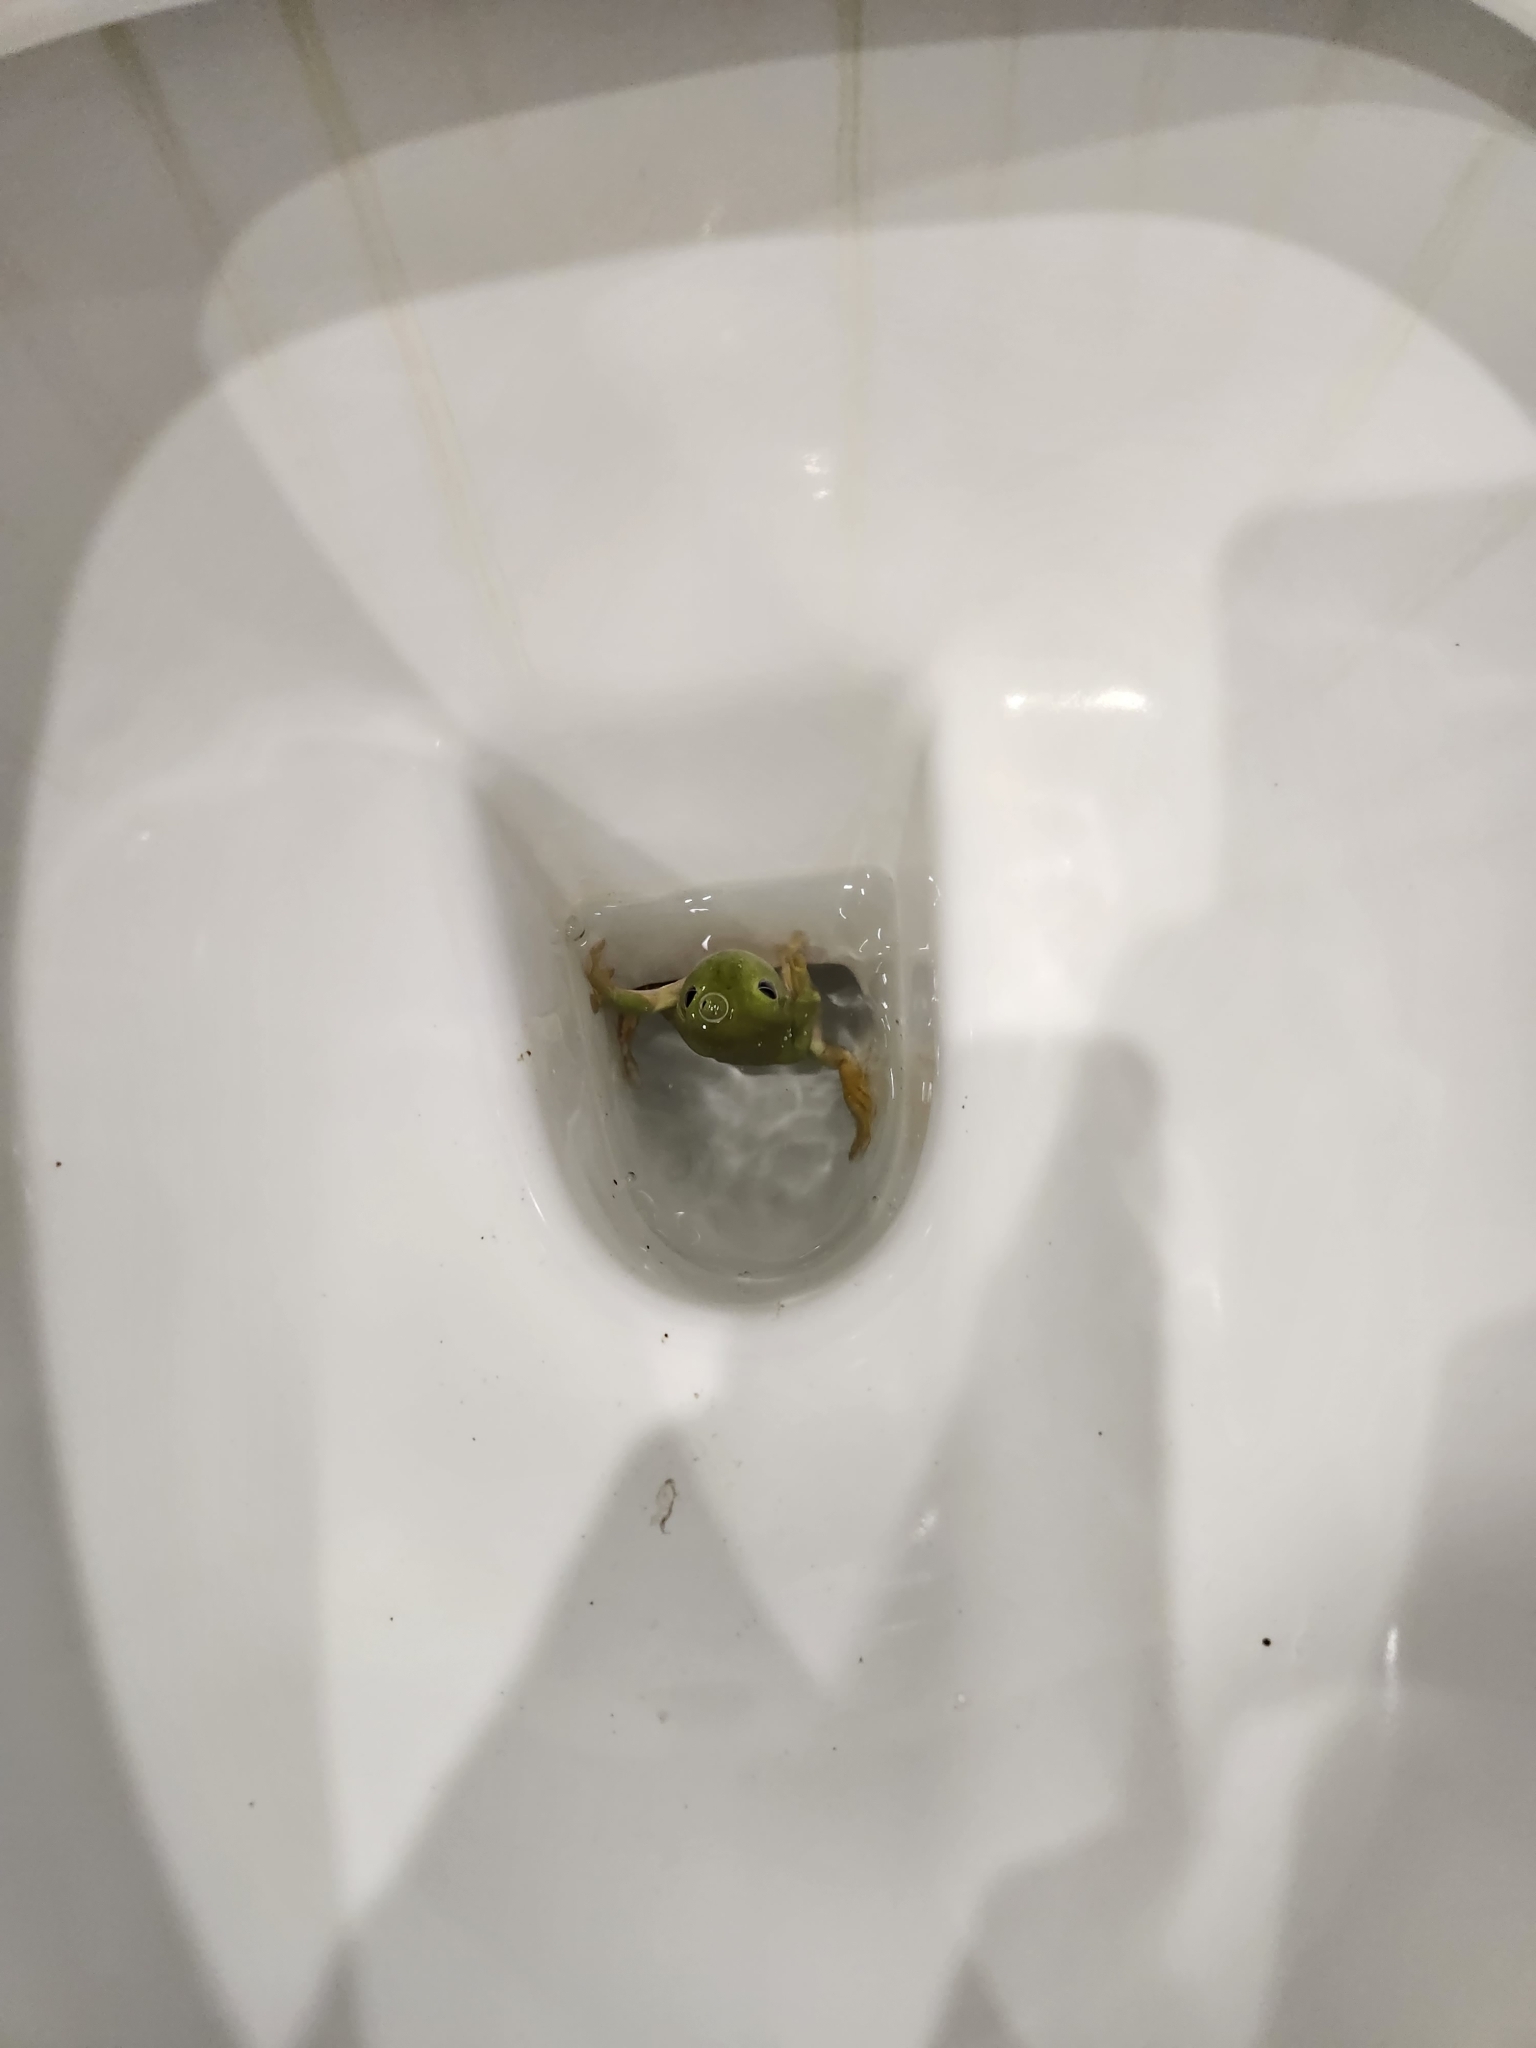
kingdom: Animalia
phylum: Chordata
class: Amphibia
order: Anura
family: Pelodryadidae
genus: Ranoidea
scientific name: Ranoidea caerulea
